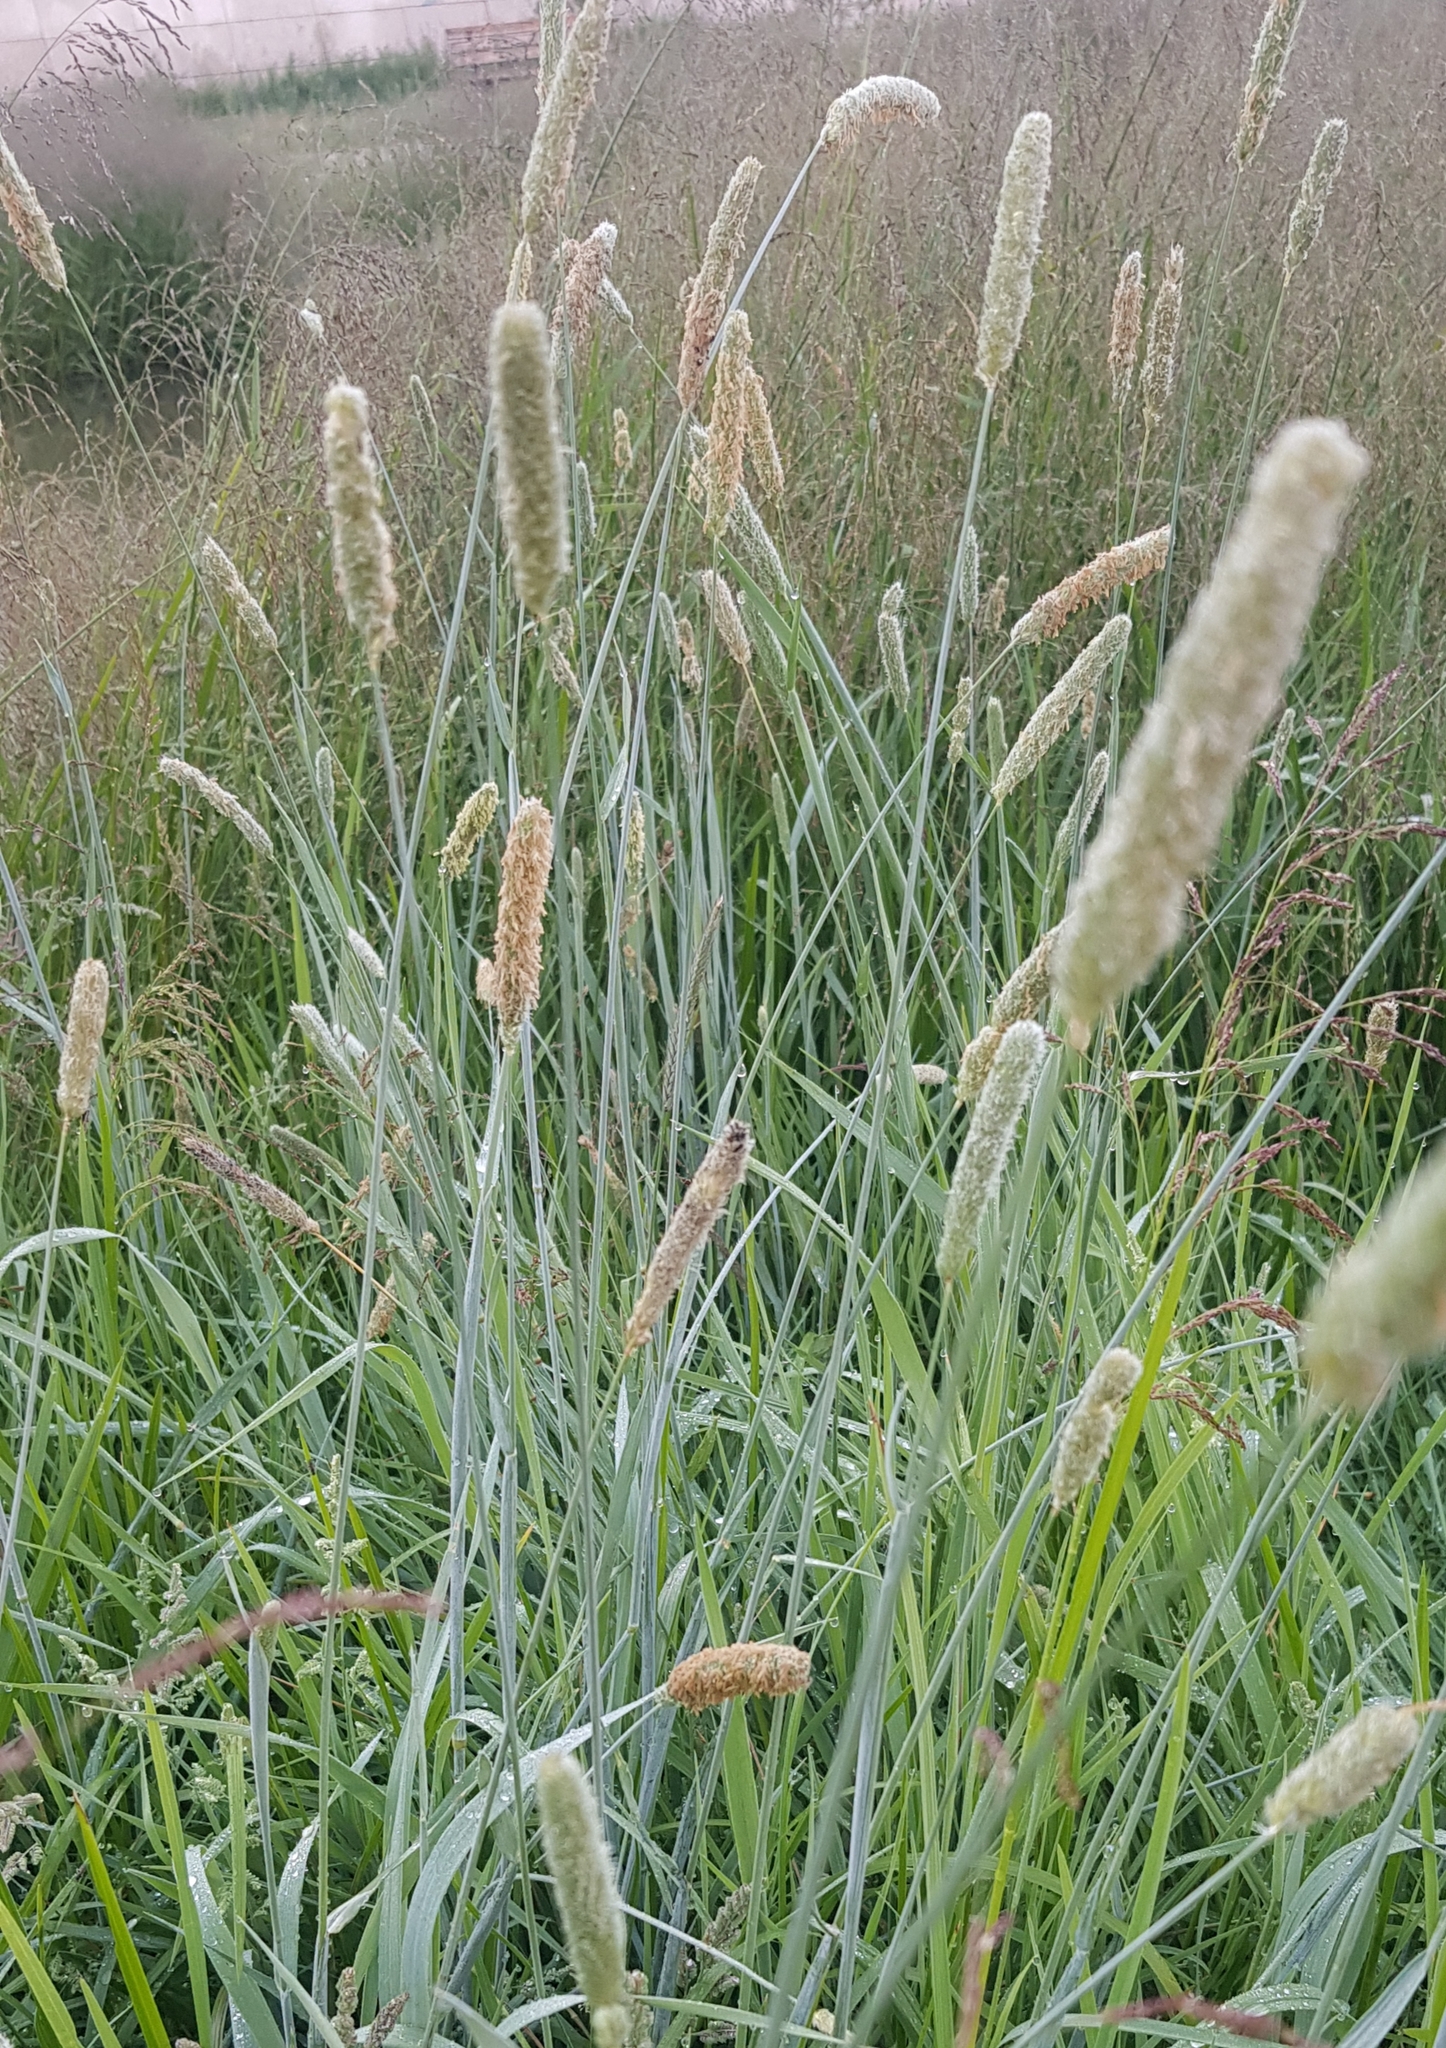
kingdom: Plantae
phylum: Tracheophyta
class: Liliopsida
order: Poales
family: Poaceae
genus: Alopecurus
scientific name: Alopecurus pratensis
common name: Meadow foxtail
